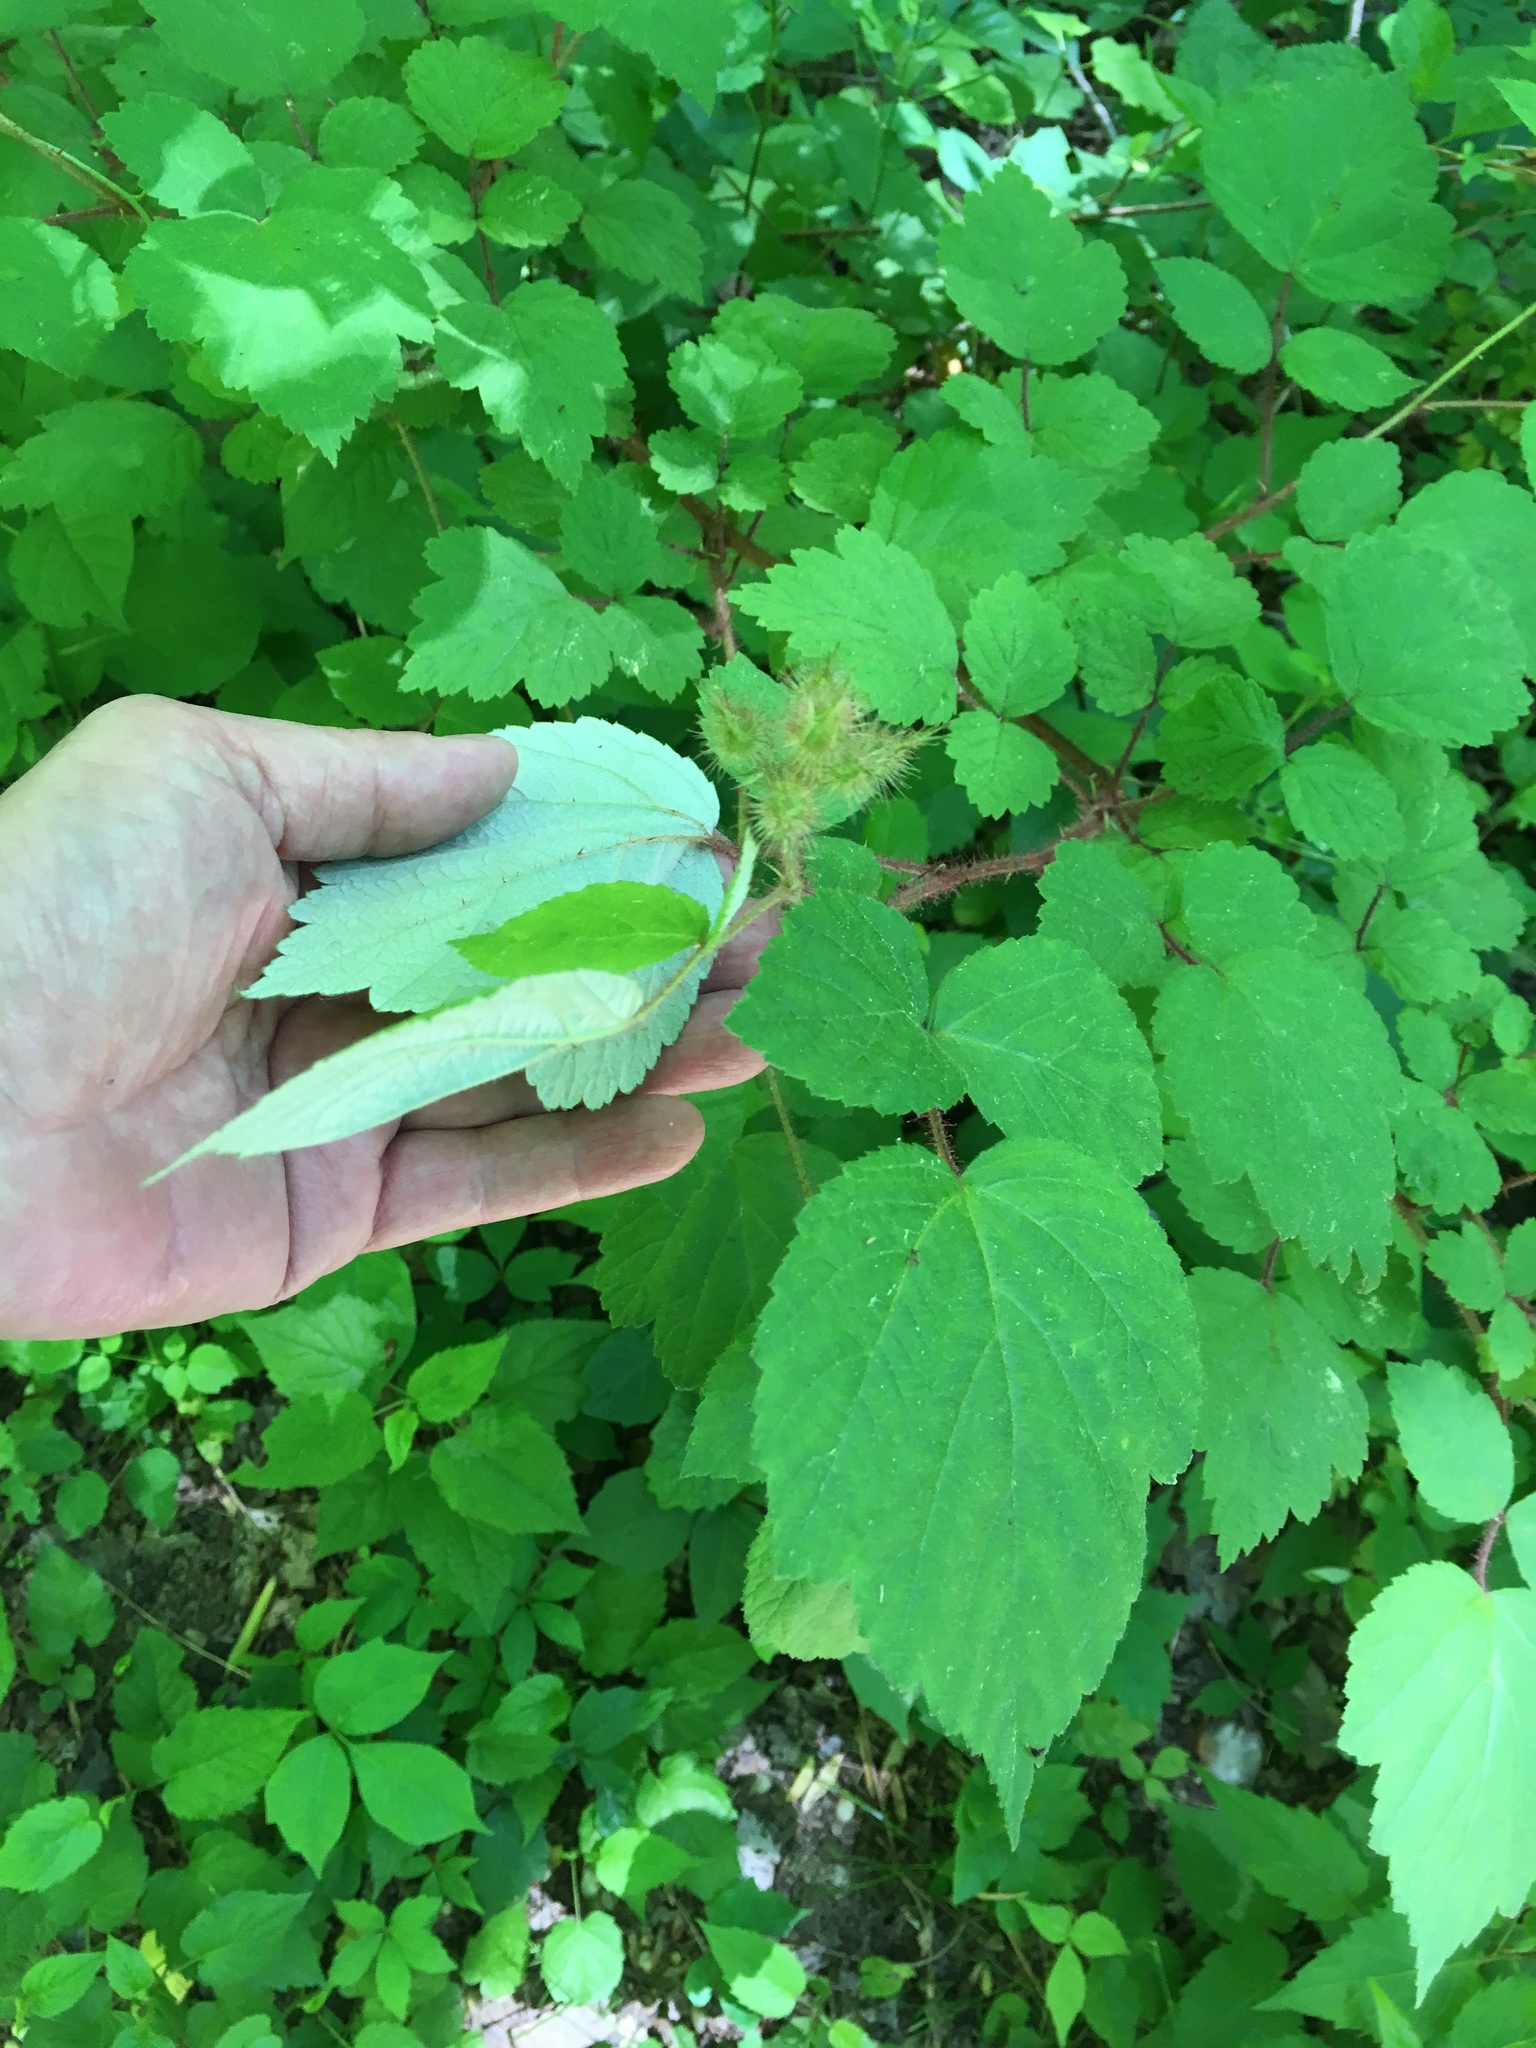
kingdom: Plantae
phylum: Tracheophyta
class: Magnoliopsida
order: Rosales
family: Rosaceae
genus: Rubus
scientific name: Rubus phoenicolasius
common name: Japanese wineberry
